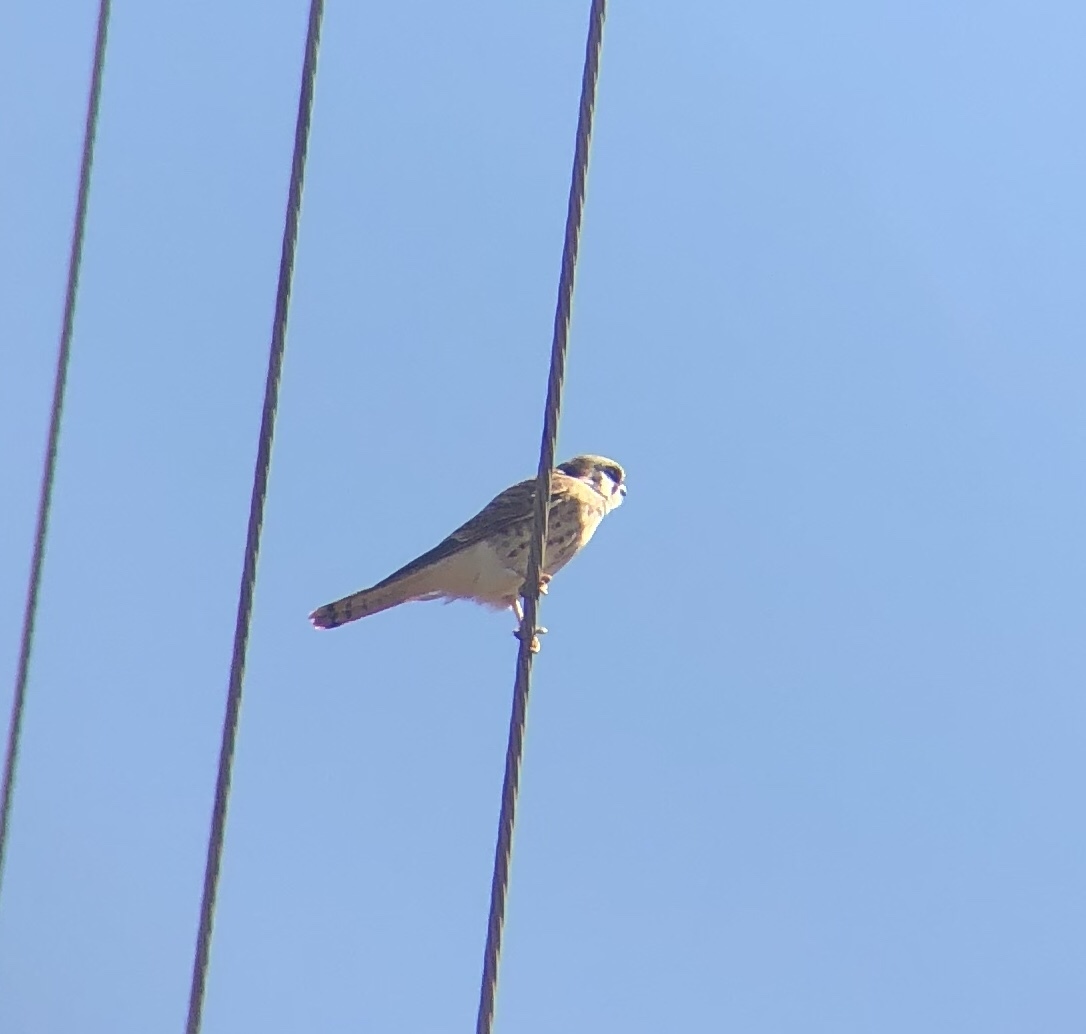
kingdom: Animalia
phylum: Chordata
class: Aves
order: Falconiformes
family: Falconidae
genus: Falco
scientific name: Falco sparverius
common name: American kestrel
